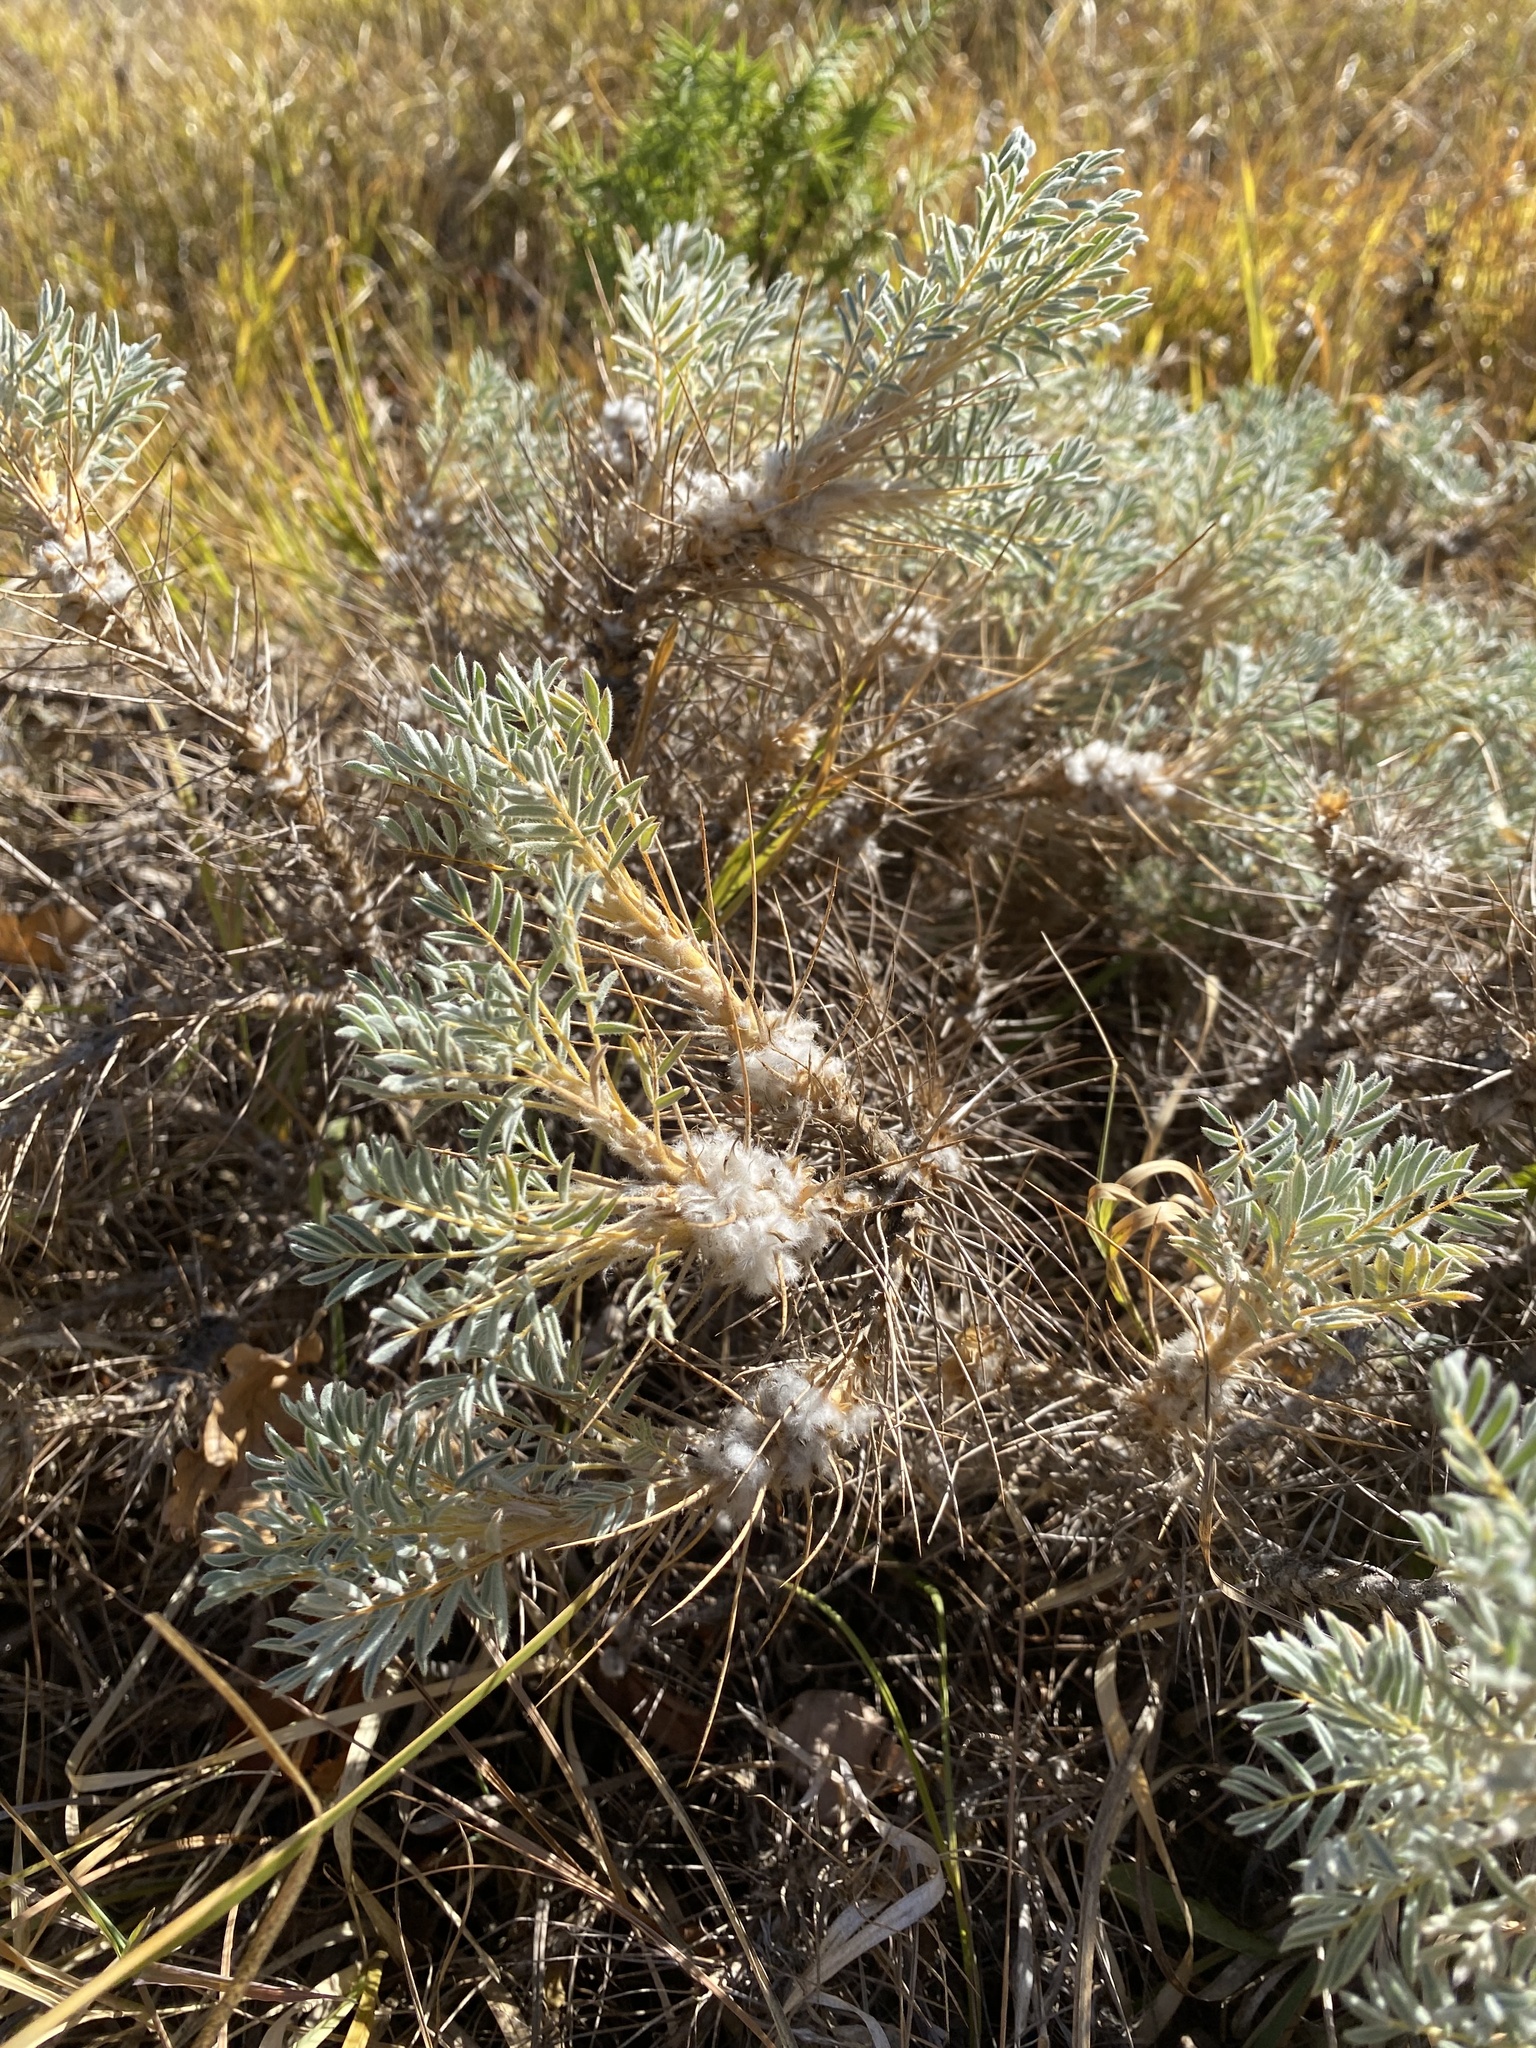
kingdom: Plantae
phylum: Tracheophyta
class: Magnoliopsida
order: Fabales
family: Fabaceae
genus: Astragalus
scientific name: Astragalus arnacanthoides
